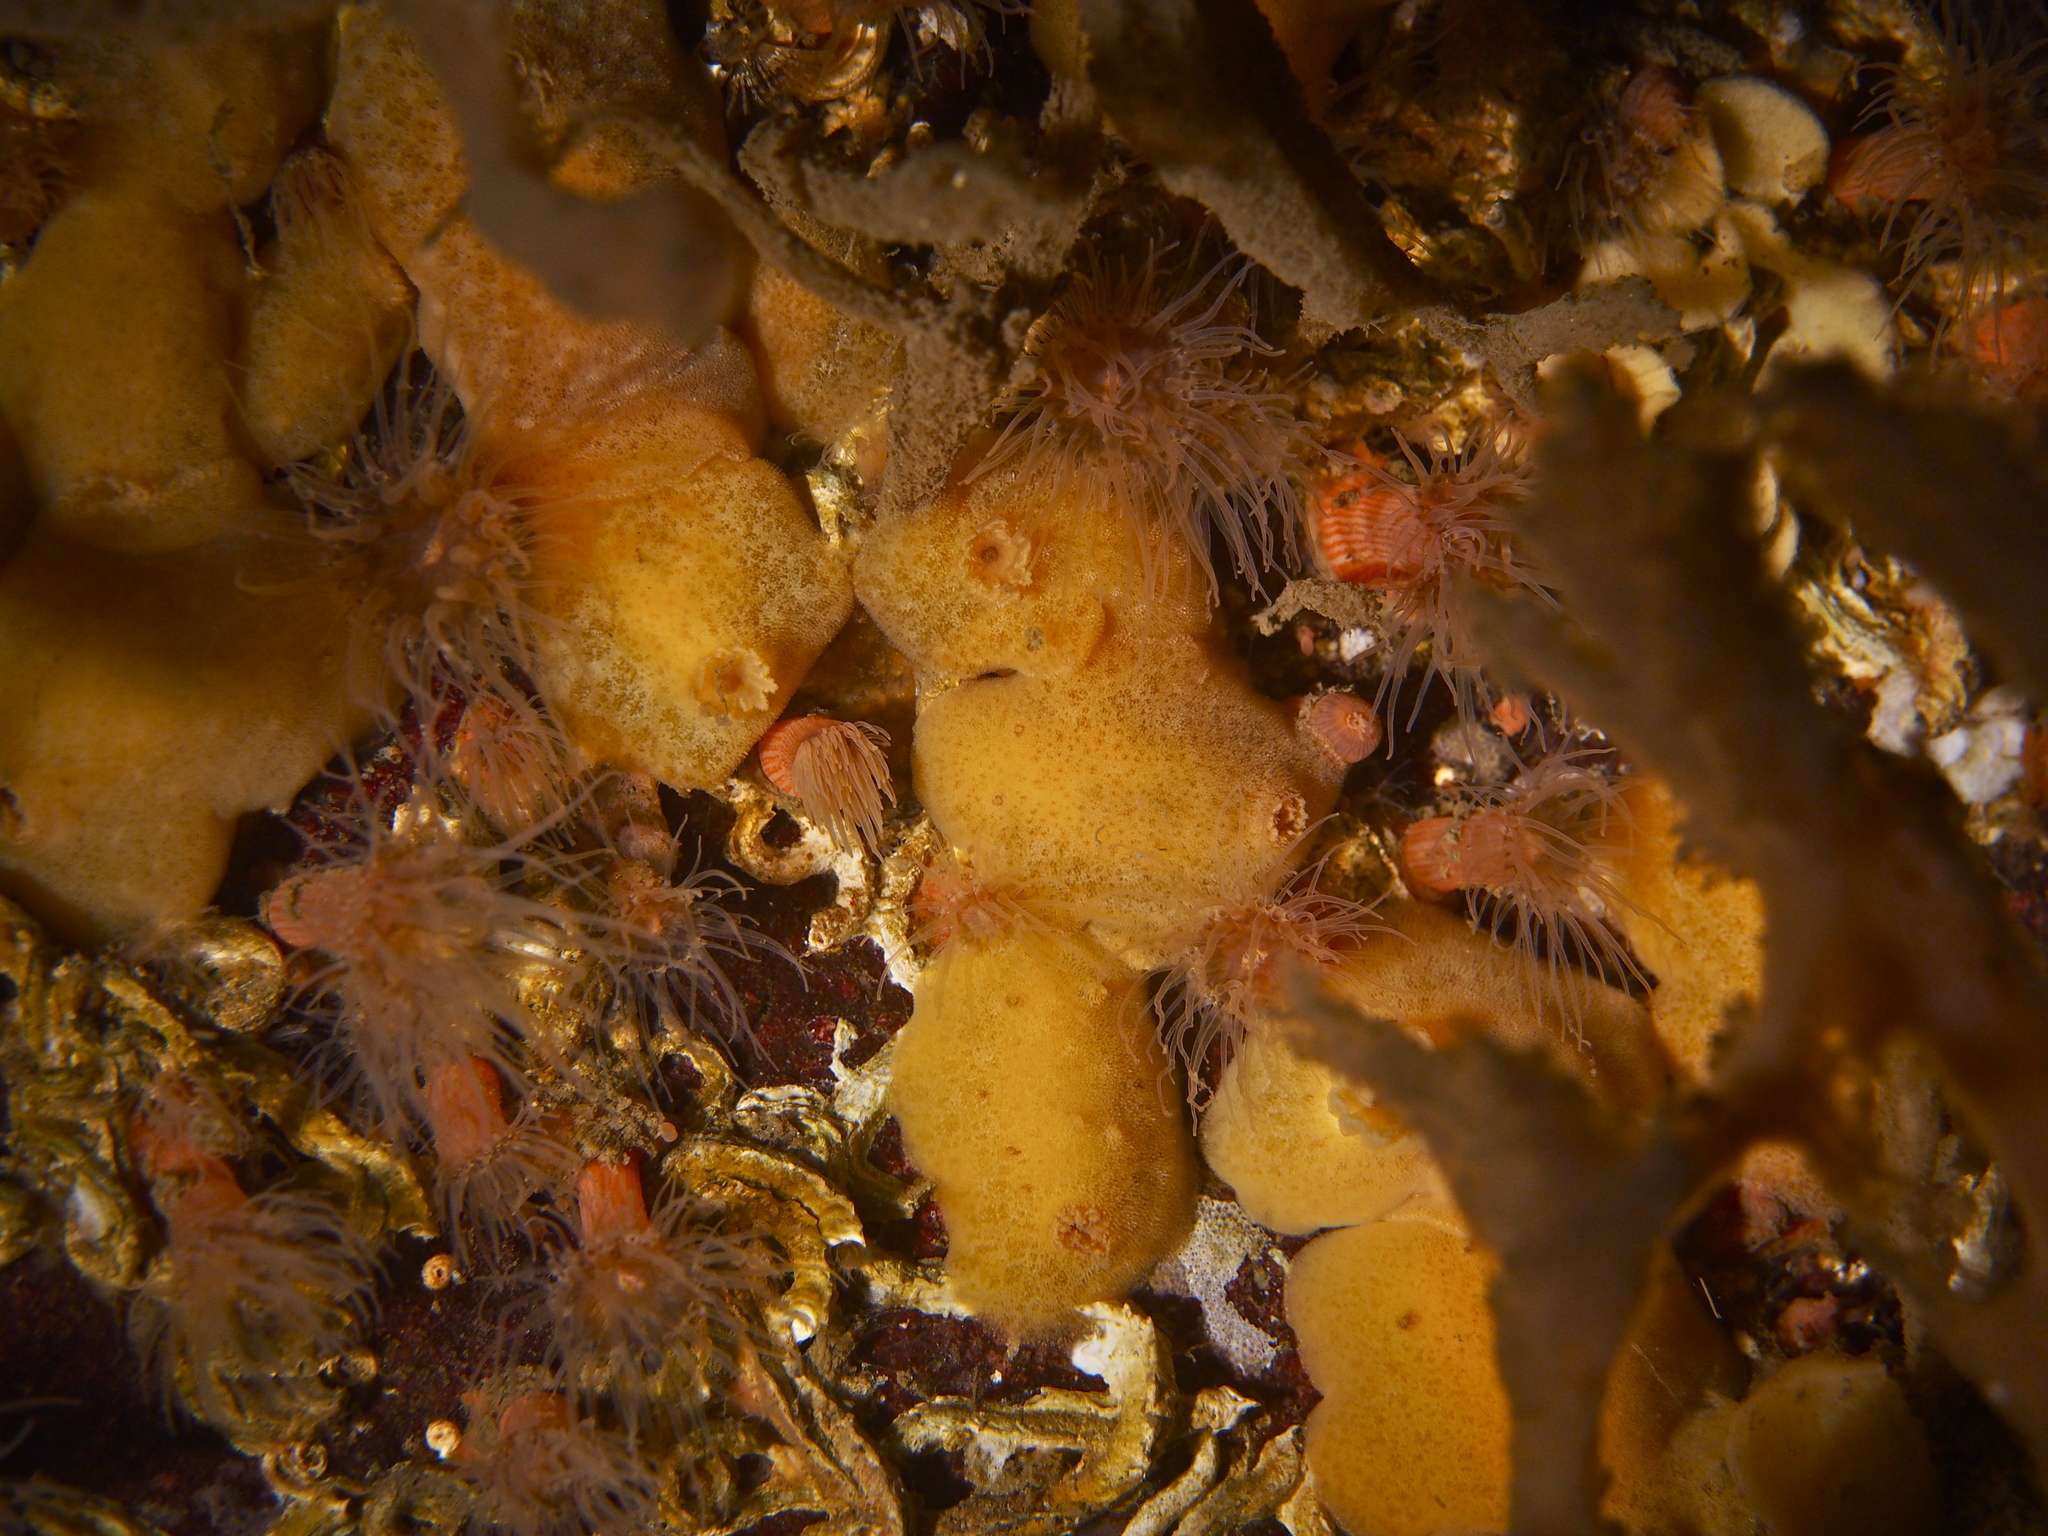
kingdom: Animalia
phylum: Mollusca
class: Gastropoda
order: Nudibranchia
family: Discodorididae
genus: Jorunna
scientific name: Jorunna tomentosa
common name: Grey sea slug
